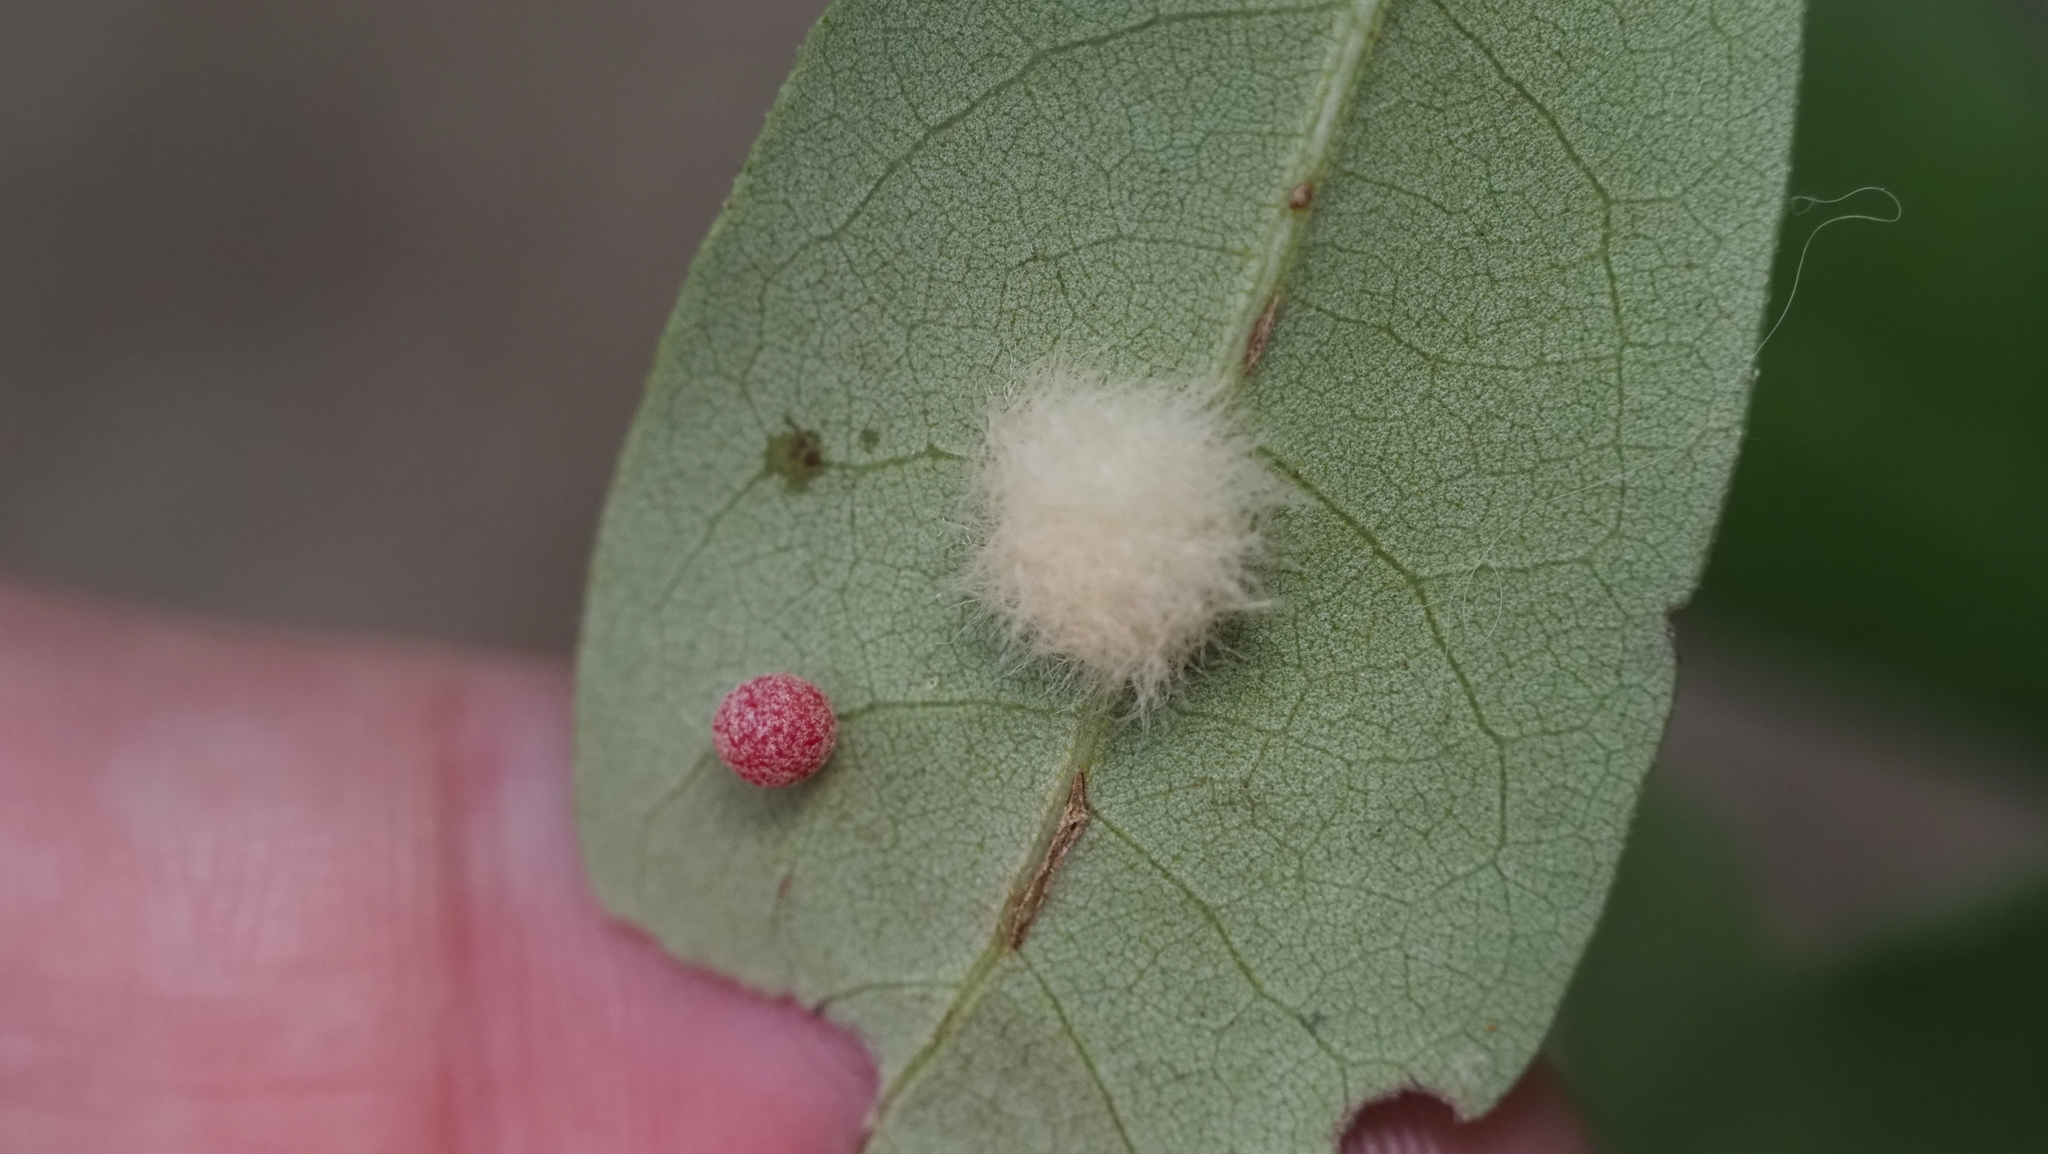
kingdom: Animalia
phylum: Arthropoda
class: Insecta
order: Hymenoptera
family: Cynipidae
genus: Andricus
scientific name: Andricus Druon quercuslanigerum
